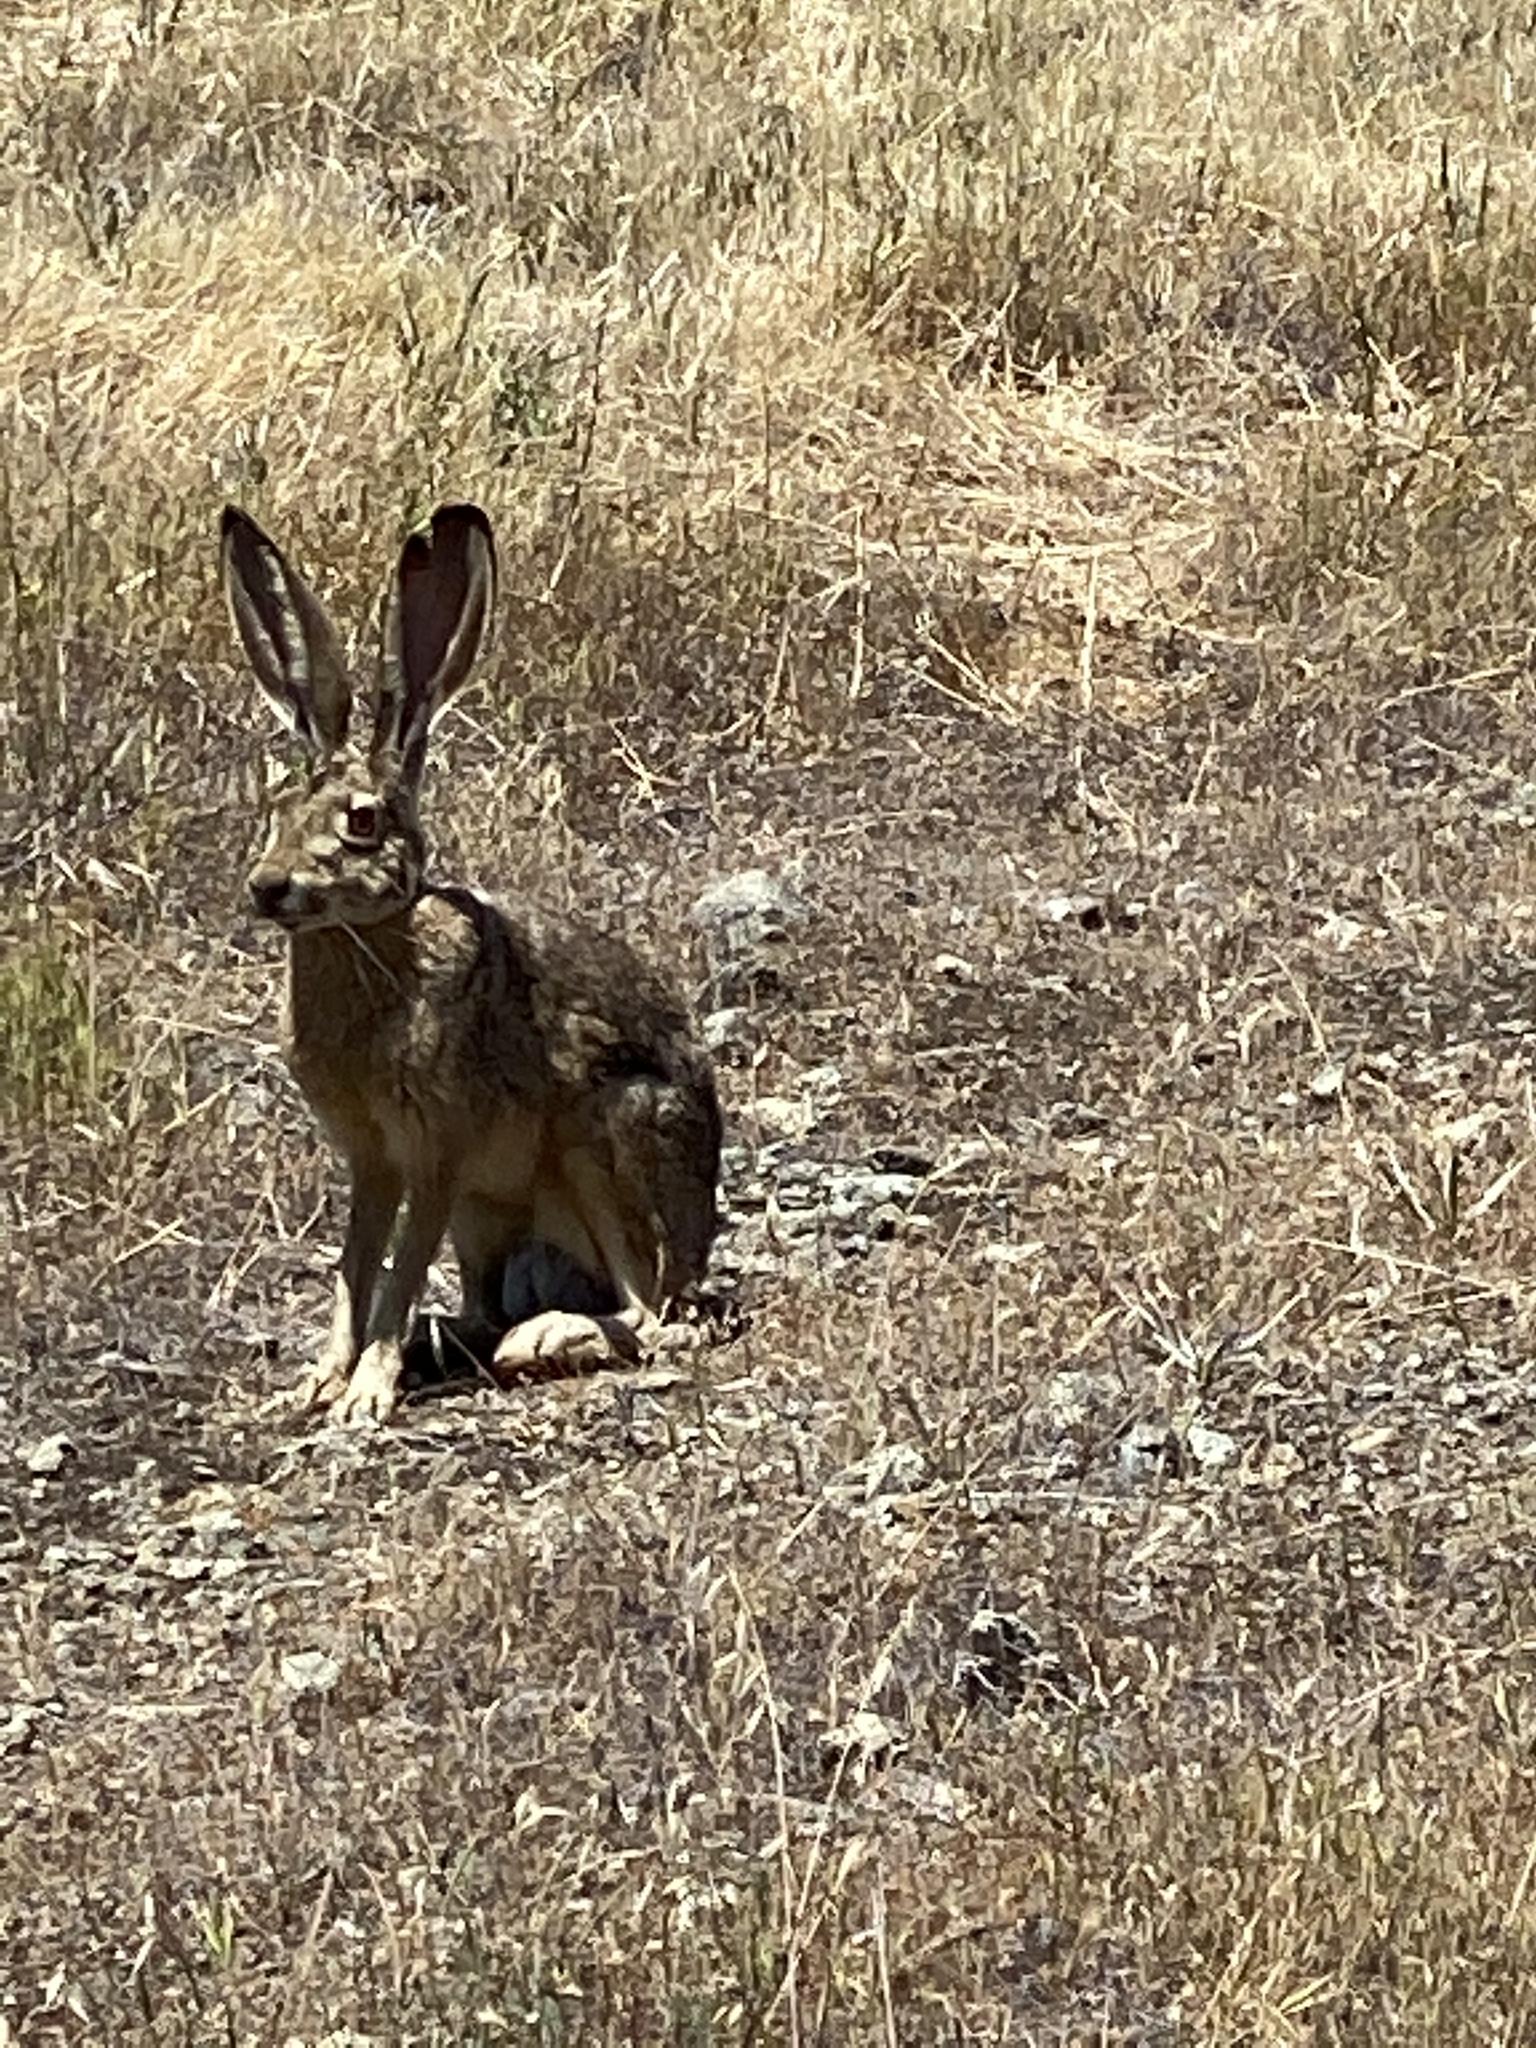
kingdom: Animalia
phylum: Chordata
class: Mammalia
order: Lagomorpha
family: Leporidae
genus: Lepus
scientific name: Lepus californicus
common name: Black-tailed jackrabbit
